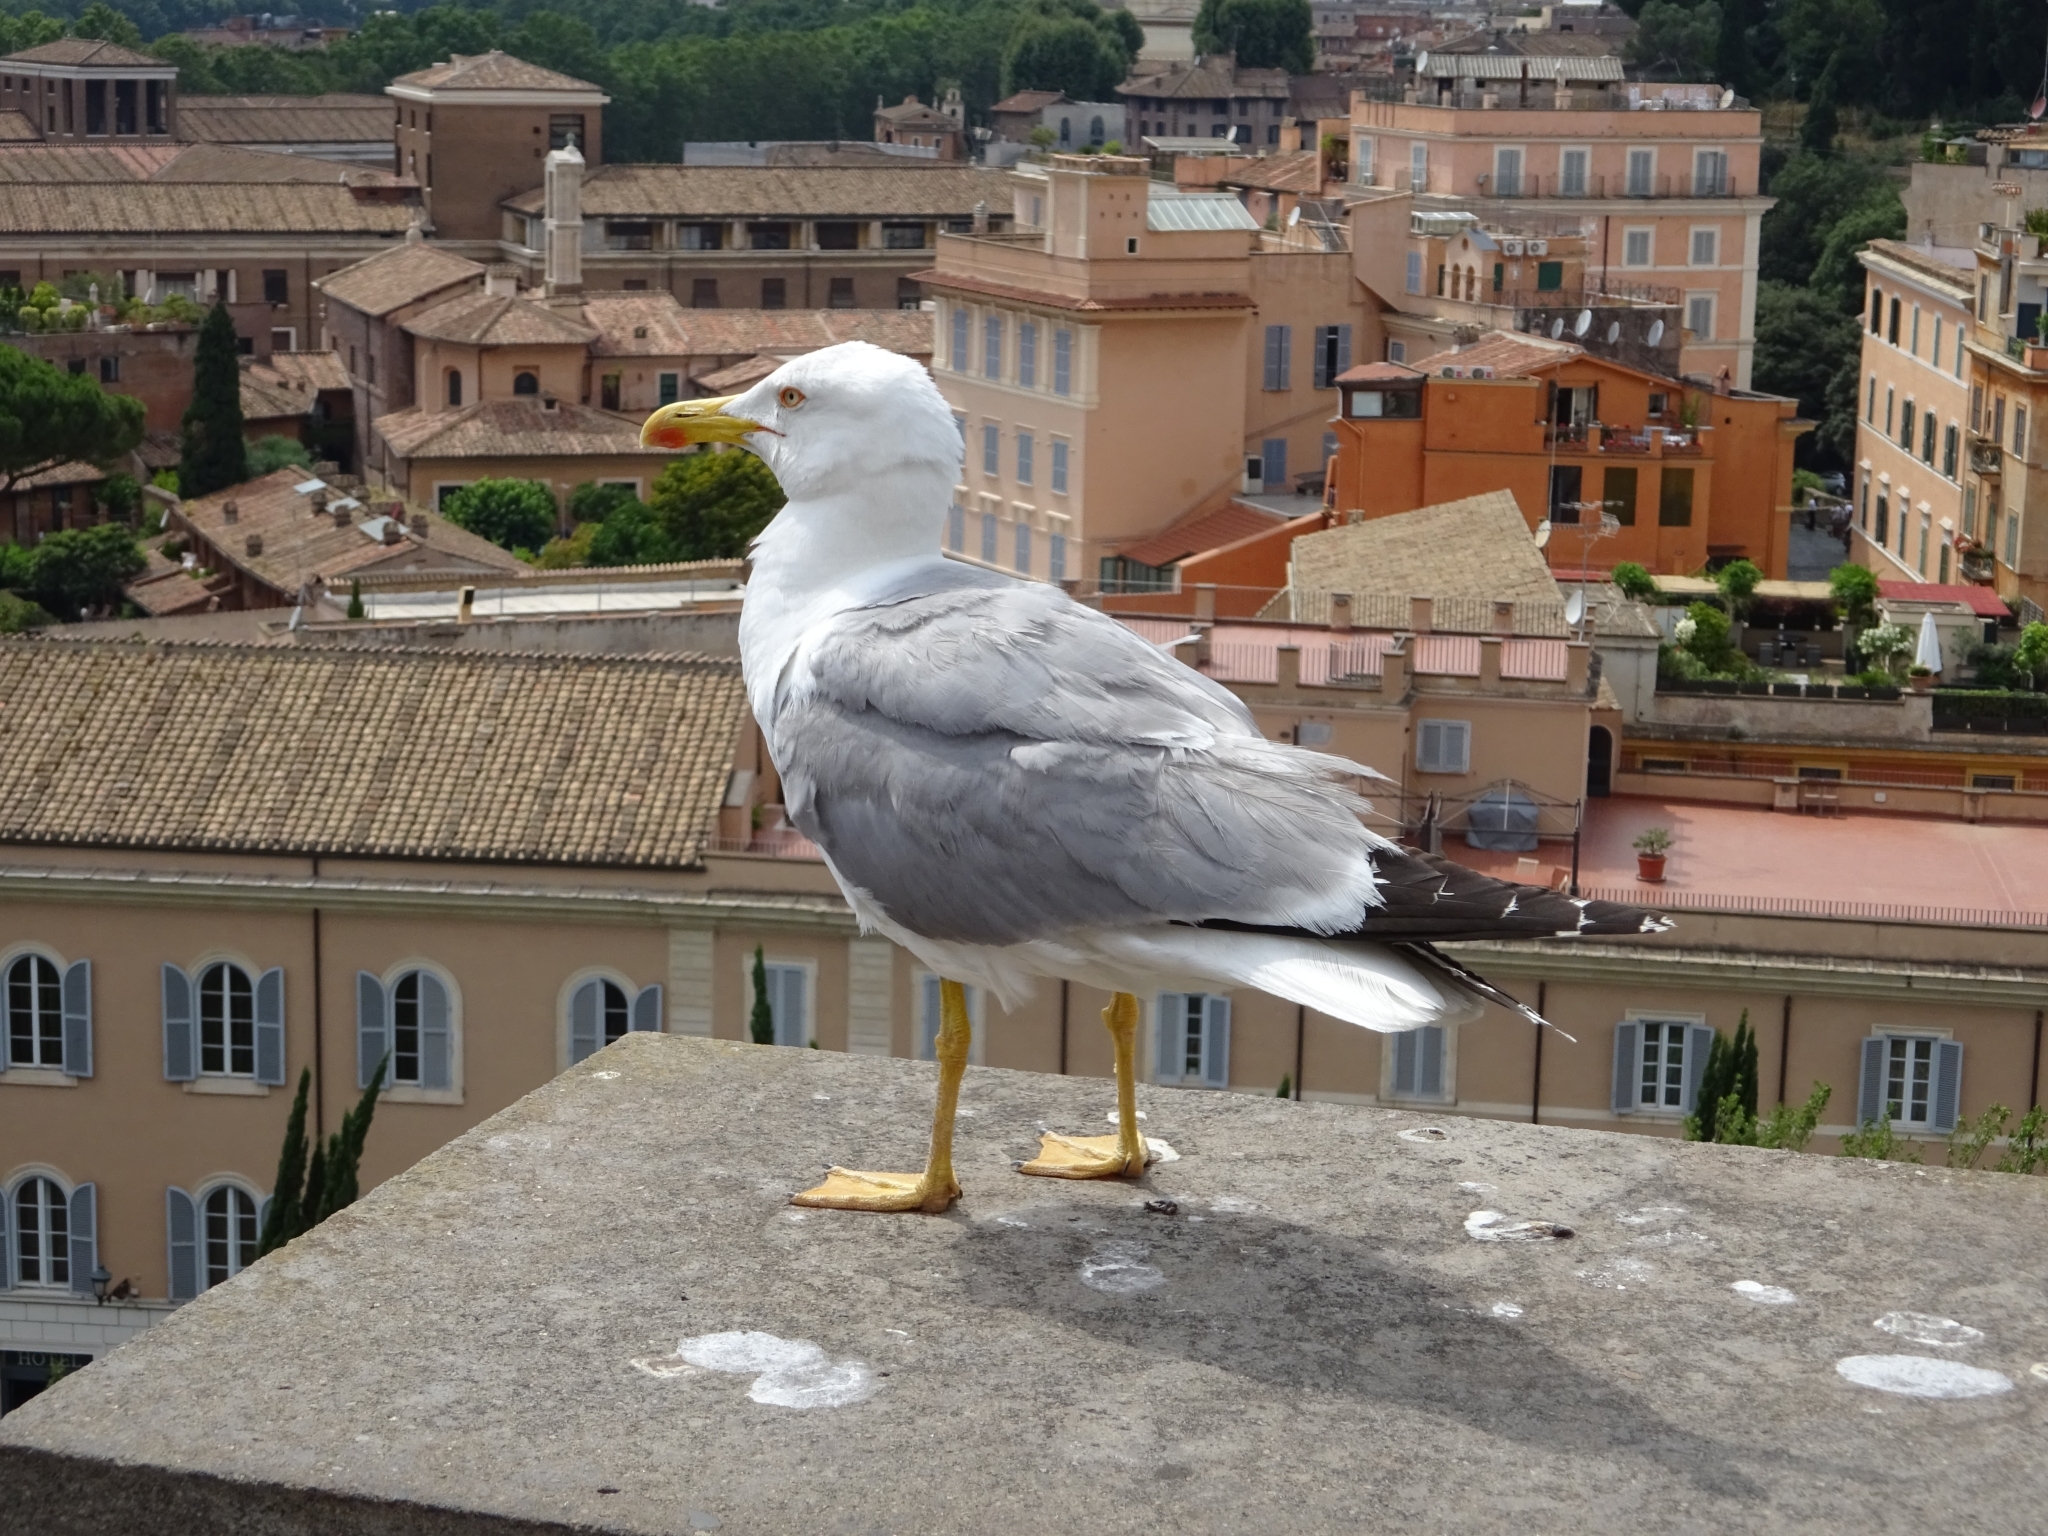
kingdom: Animalia
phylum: Chordata
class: Aves
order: Charadriiformes
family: Laridae
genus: Larus
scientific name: Larus michahellis
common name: Yellow-legged gull
